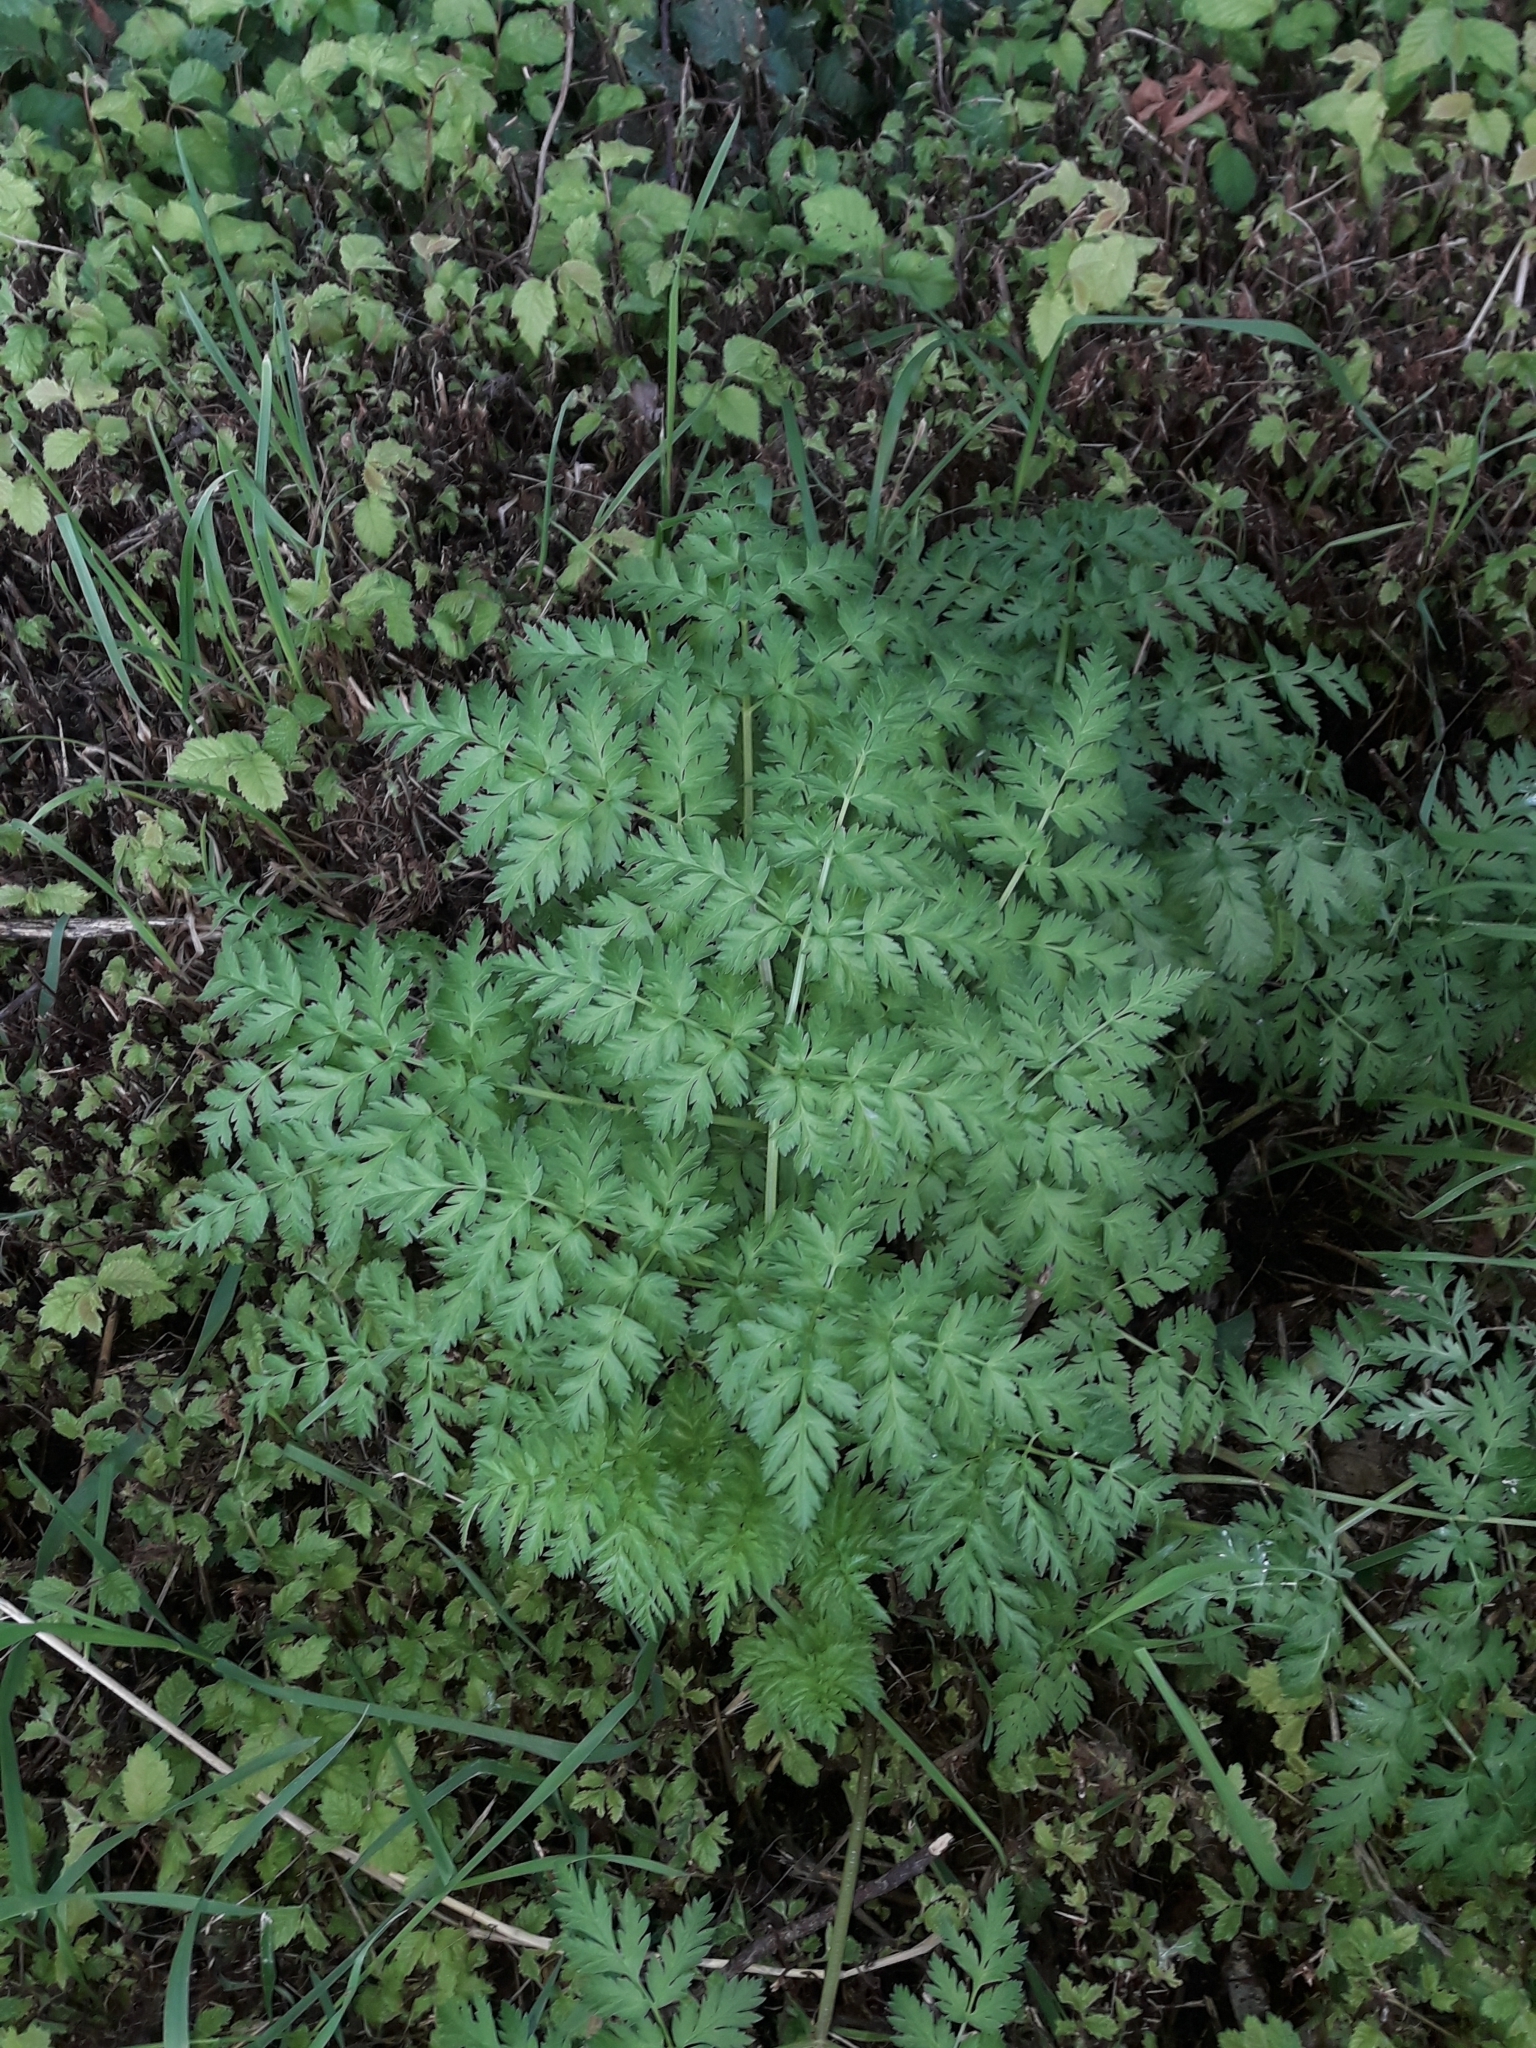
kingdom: Plantae
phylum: Tracheophyta
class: Magnoliopsida
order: Apiales
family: Apiaceae
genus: Conium
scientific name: Conium maculatum
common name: Hemlock
